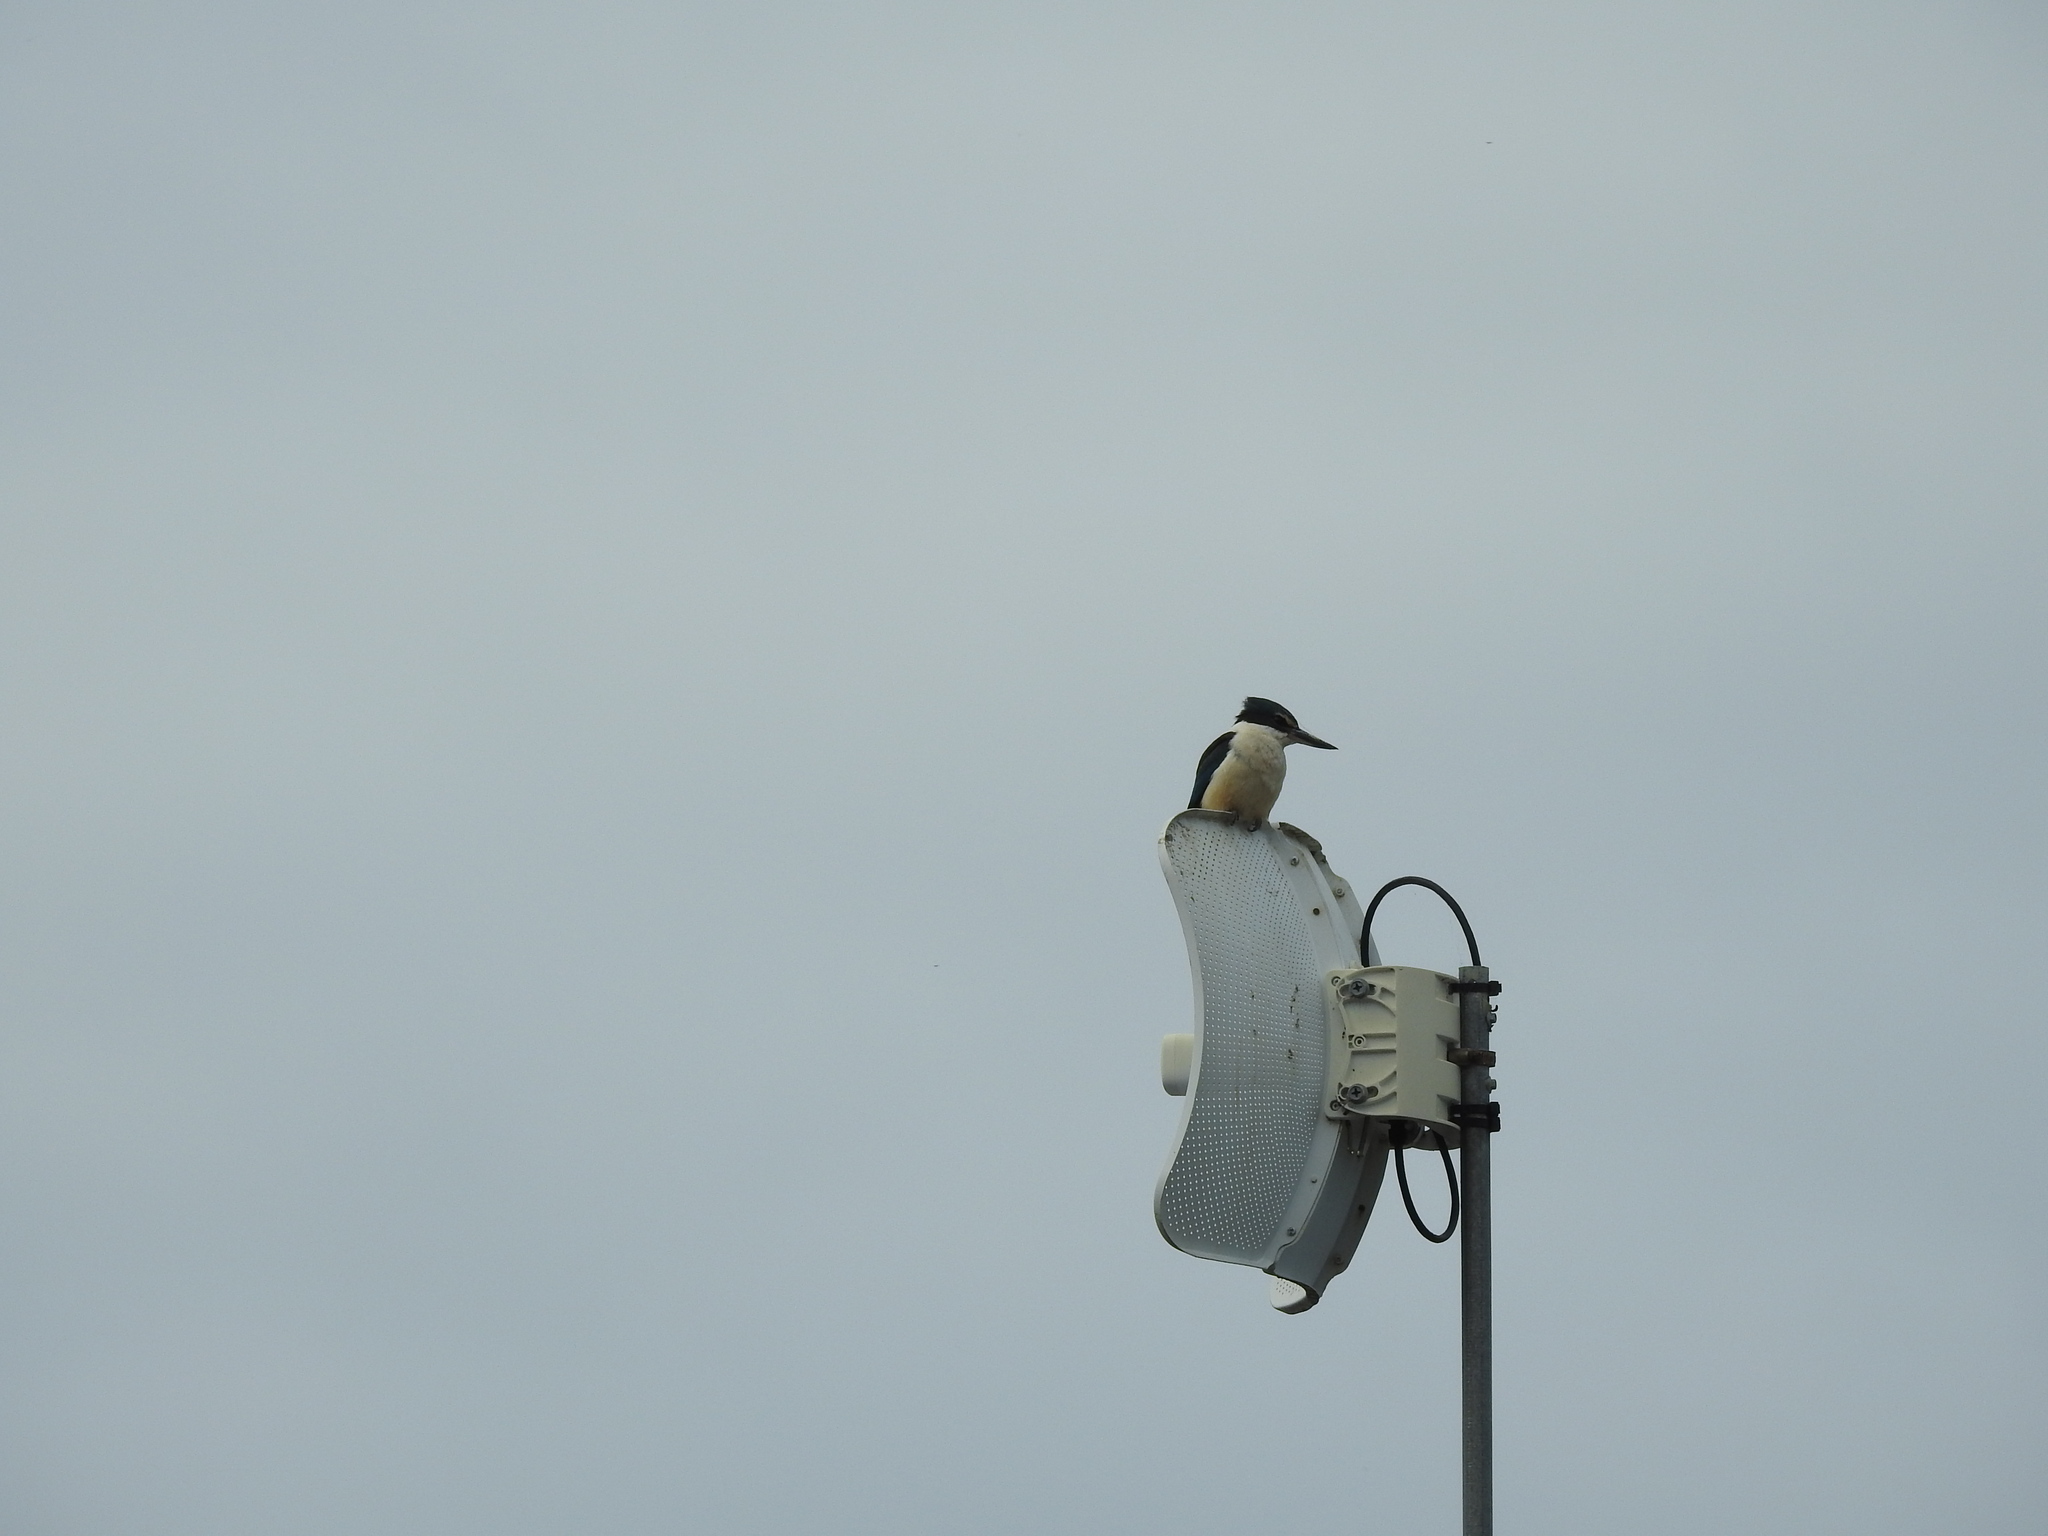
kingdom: Animalia
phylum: Chordata
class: Aves
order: Coraciiformes
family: Alcedinidae
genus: Todiramphus
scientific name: Todiramphus sanctus
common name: Sacred kingfisher
